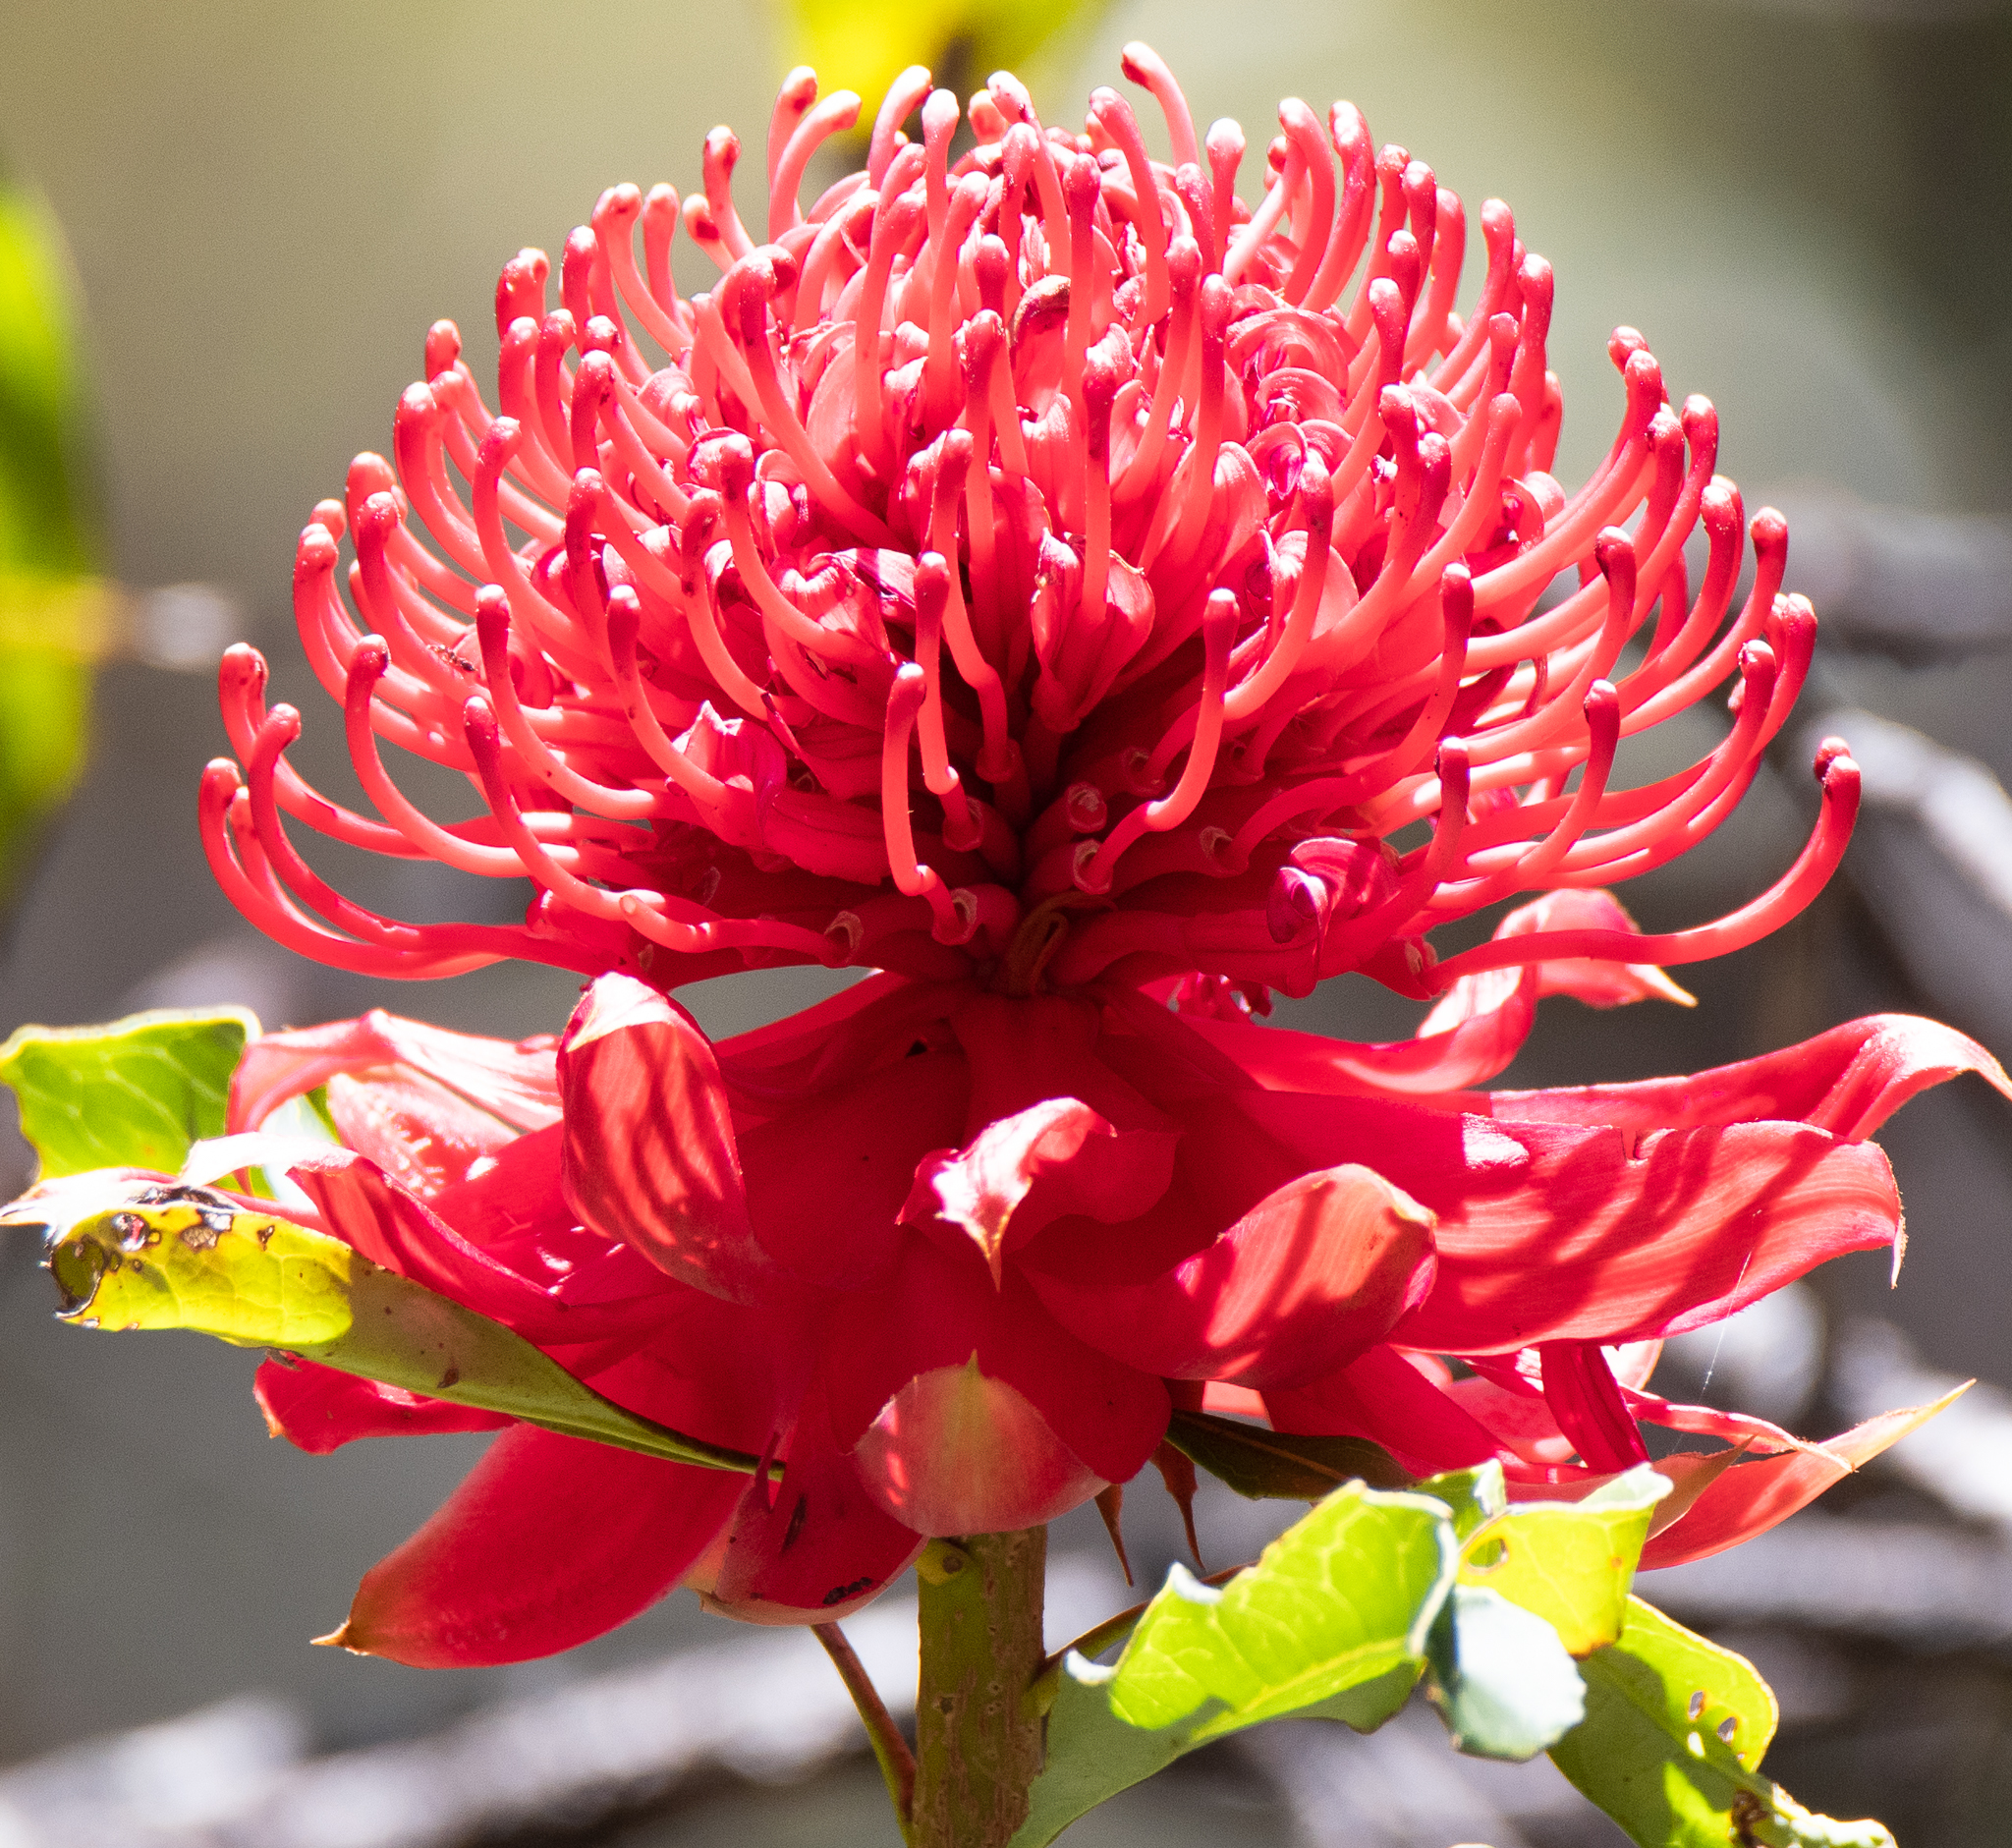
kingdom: Plantae
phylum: Tracheophyta
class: Magnoliopsida
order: Proteales
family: Proteaceae
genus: Telopea
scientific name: Telopea speciosissima
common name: New south wales waratah
